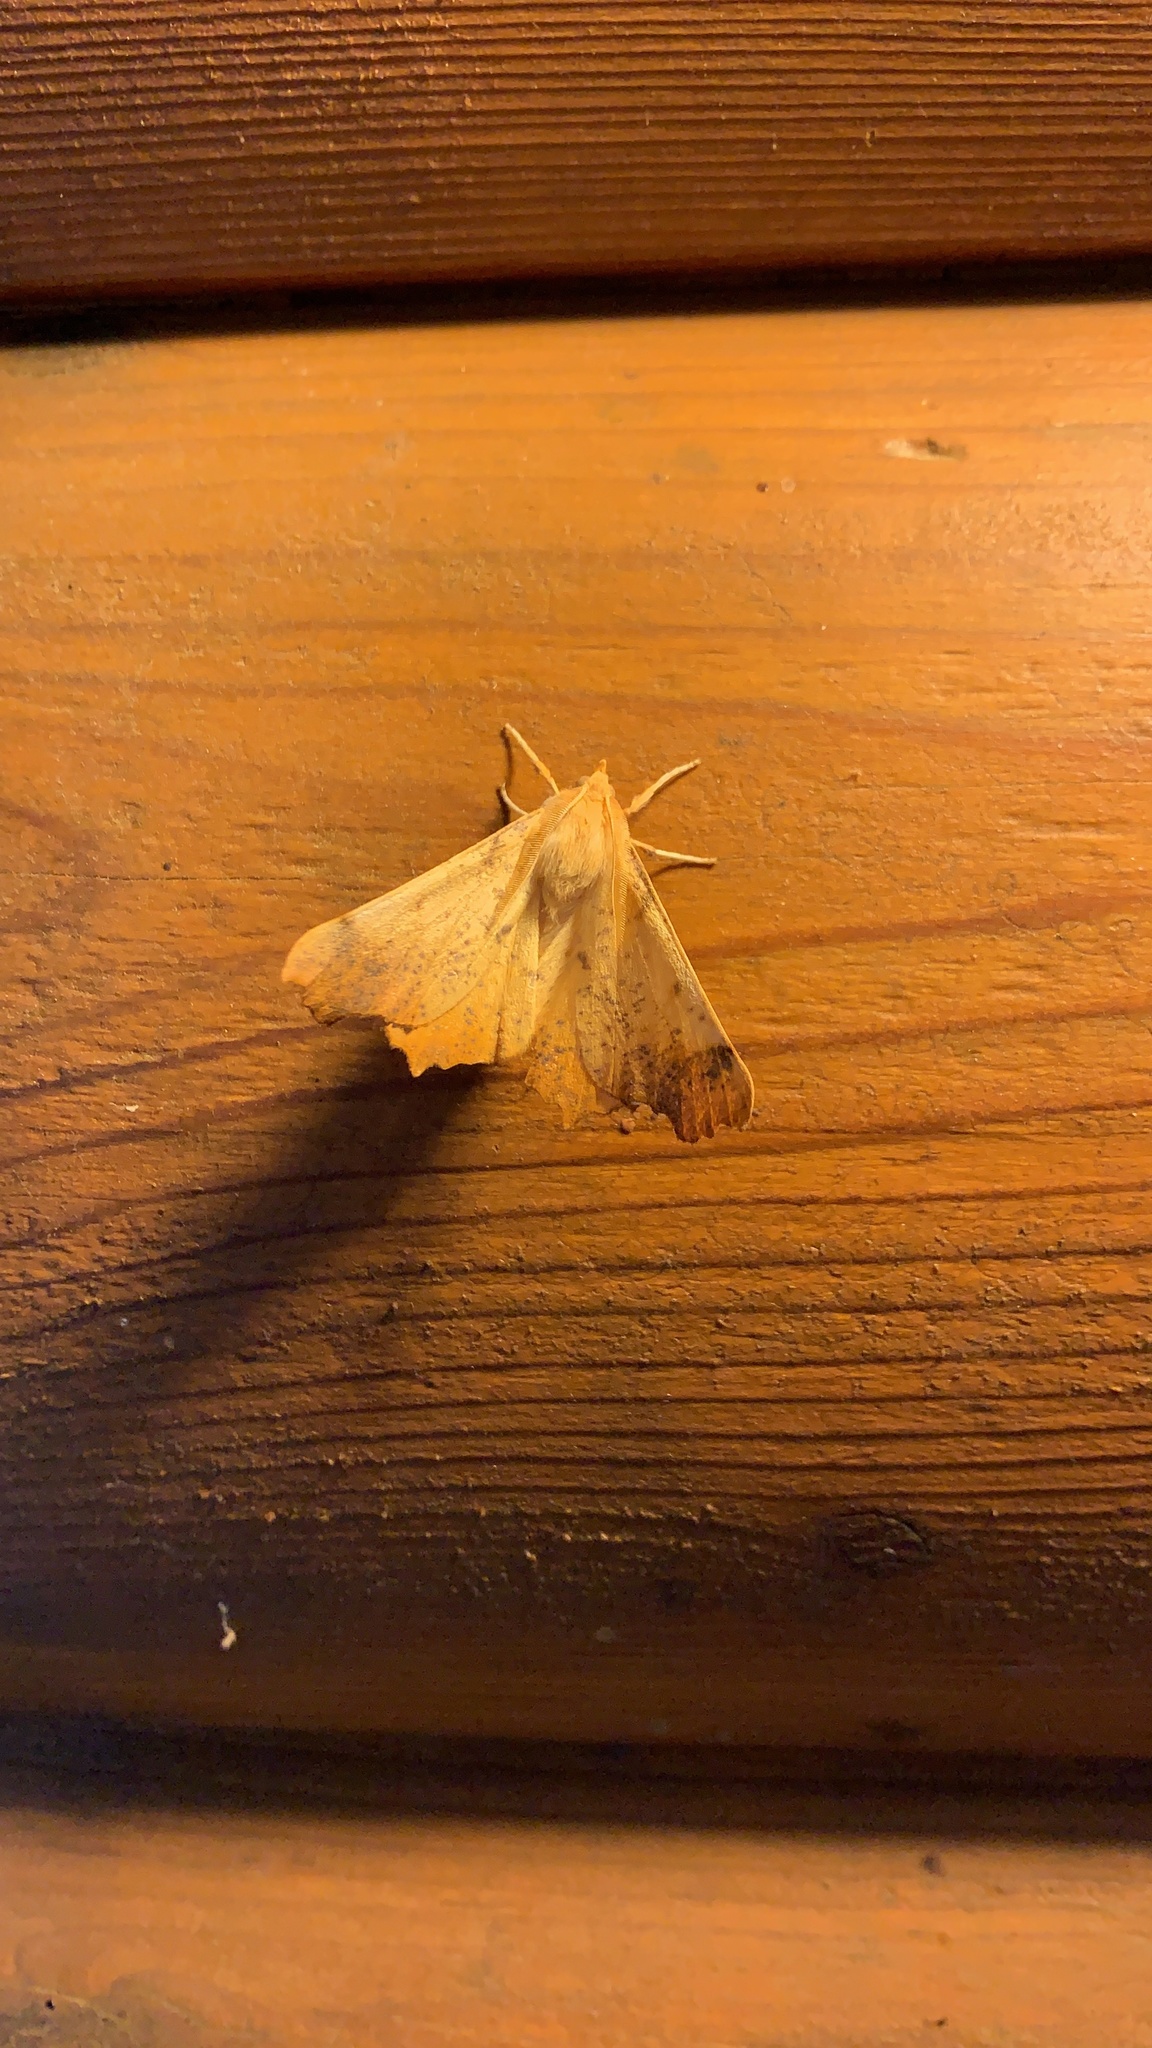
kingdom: Animalia
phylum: Arthropoda
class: Insecta
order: Lepidoptera
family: Geometridae
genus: Ennomos
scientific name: Ennomos magnaria
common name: Maple spanworm
